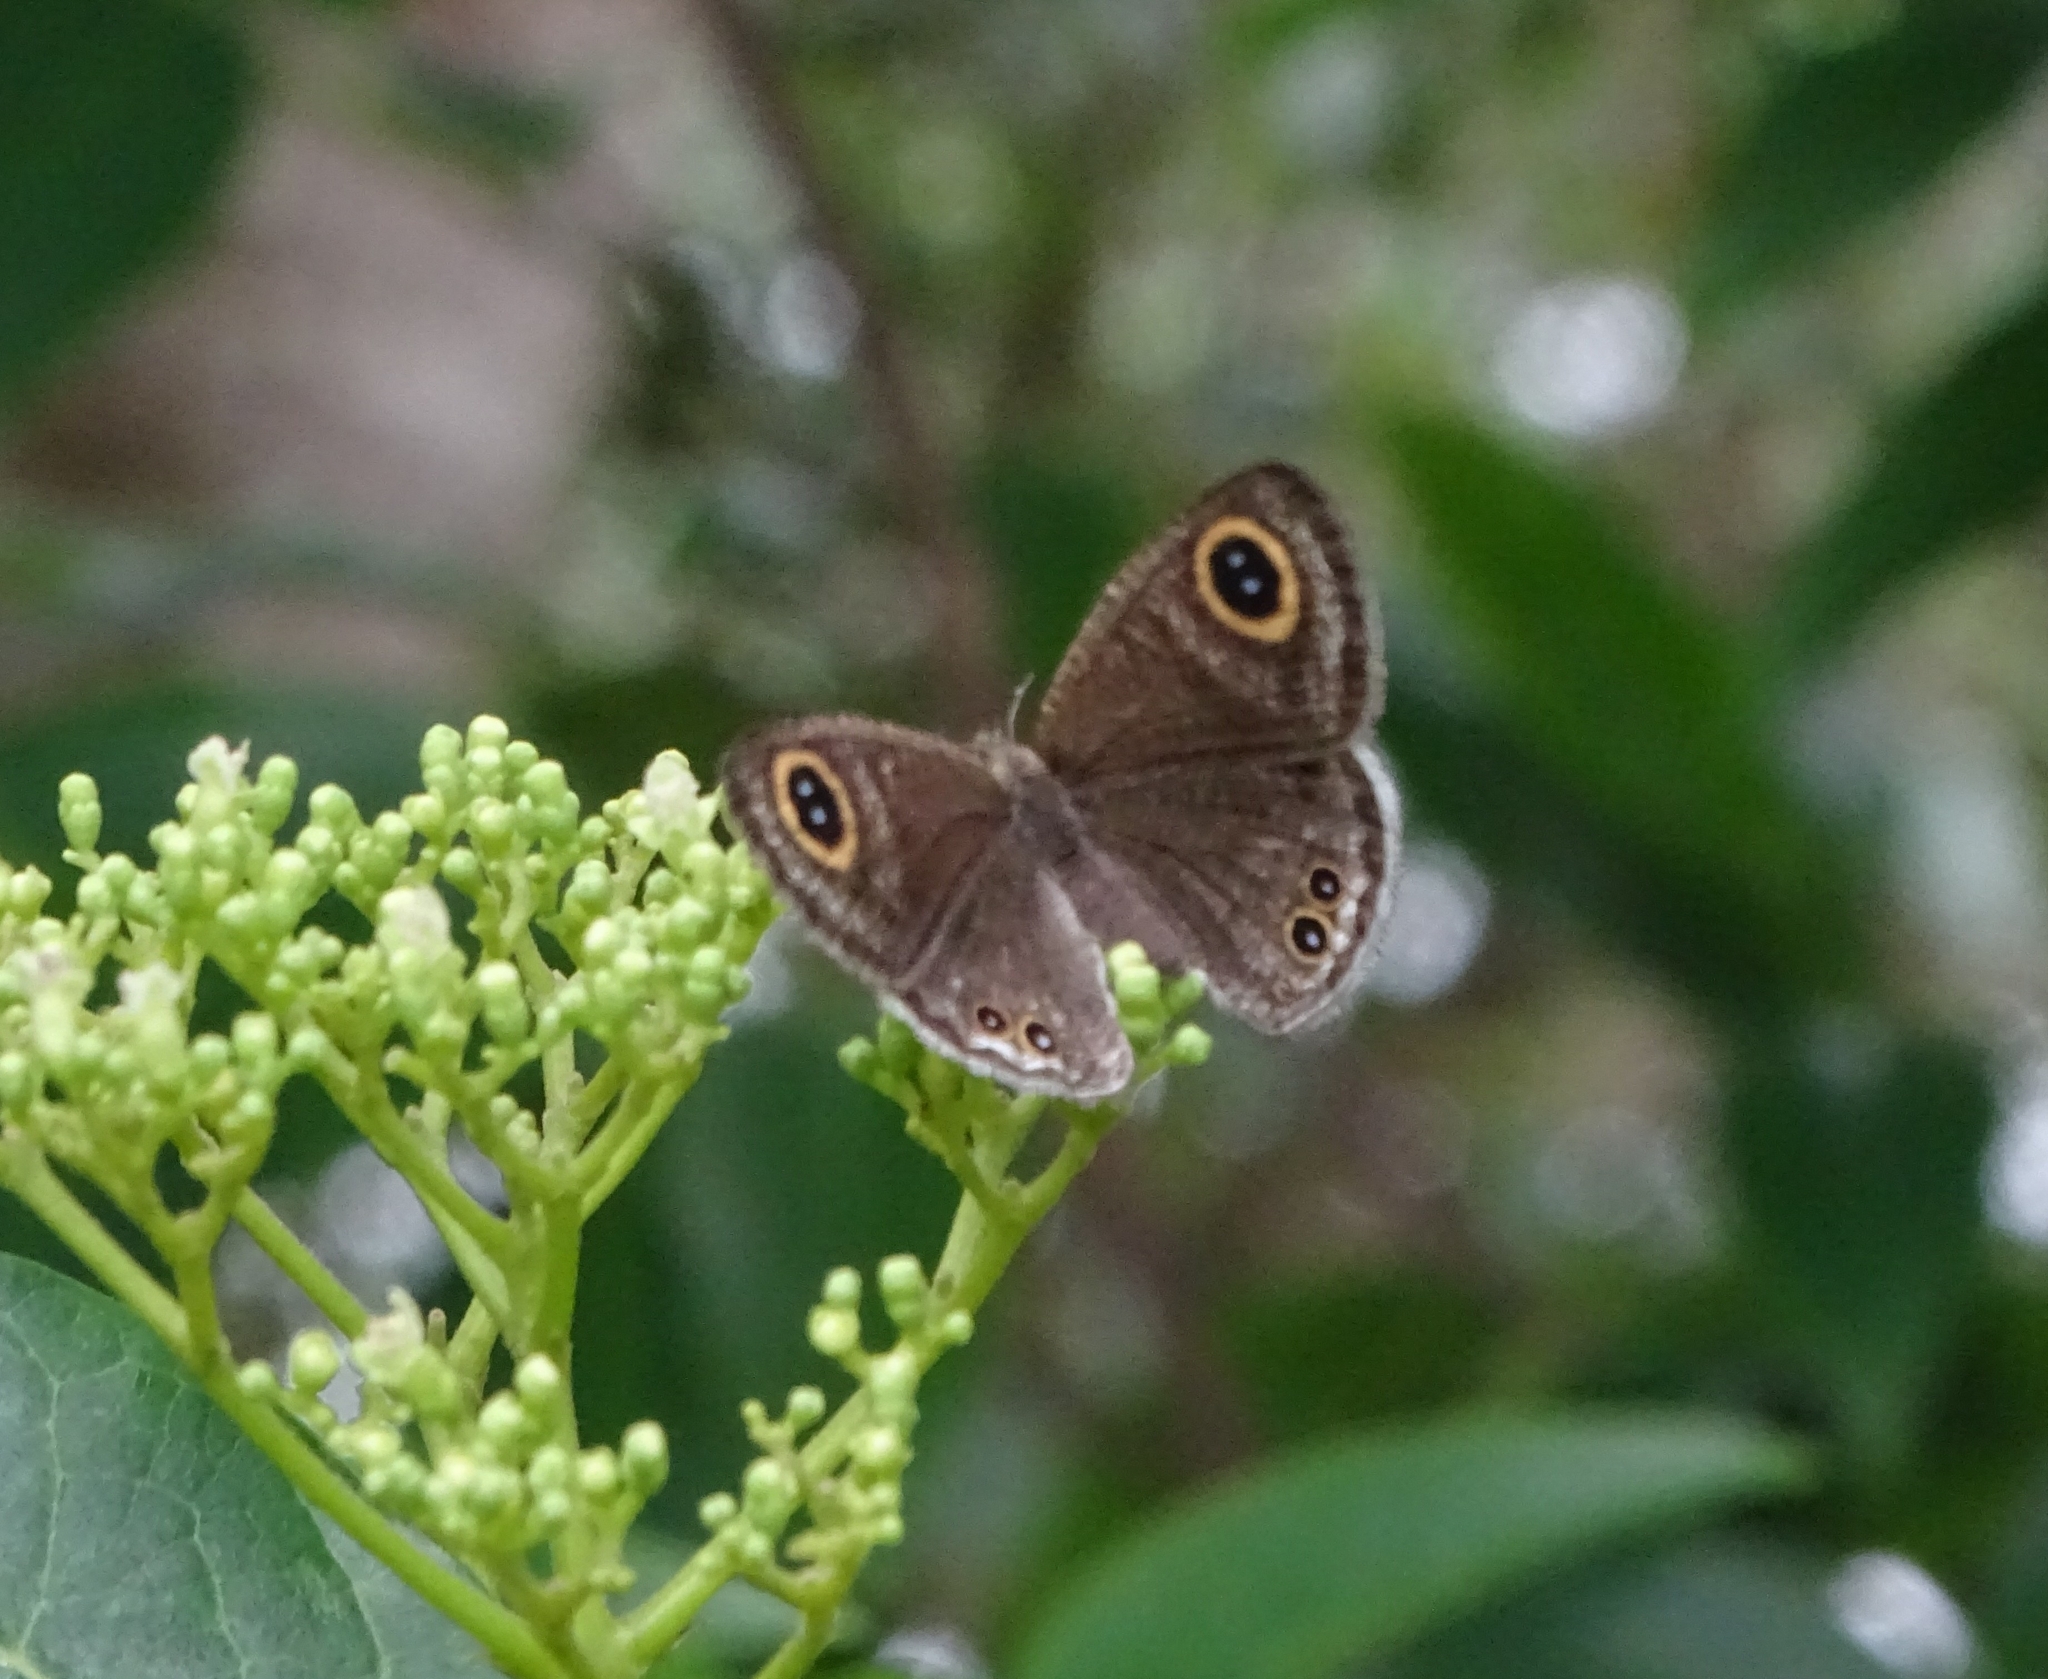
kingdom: Animalia
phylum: Arthropoda
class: Insecta
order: Lepidoptera
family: Nymphalidae
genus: Ypthima
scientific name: Ypthima huebneri
